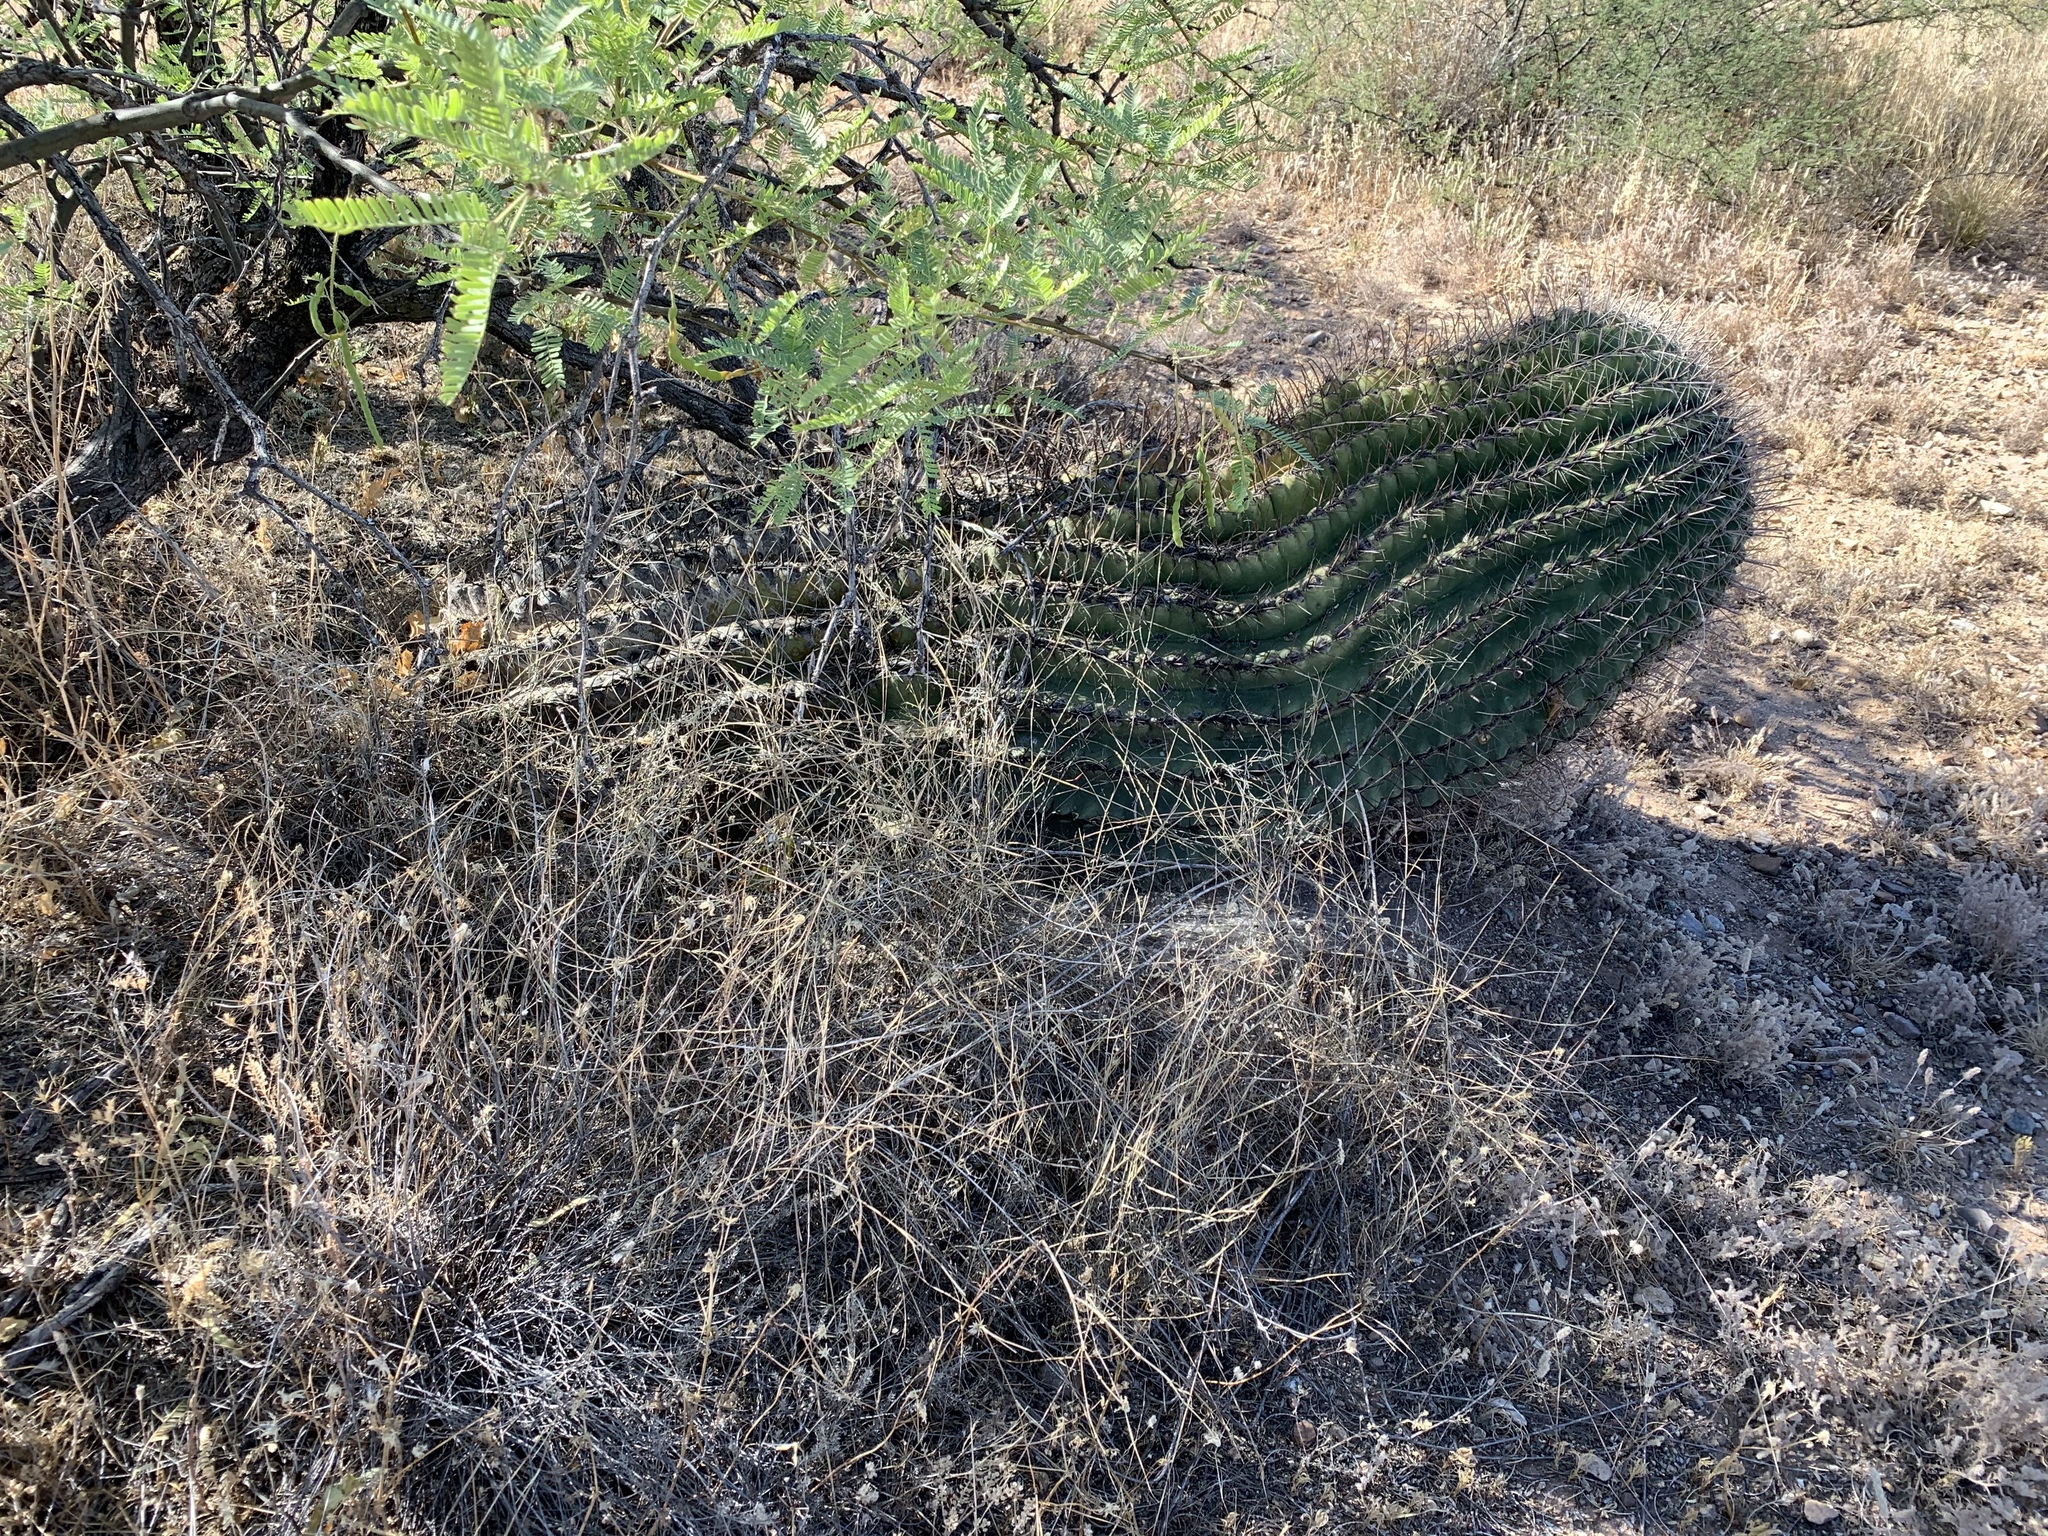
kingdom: Plantae
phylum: Tracheophyta
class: Magnoliopsida
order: Caryophyllales
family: Cactaceae
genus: Ferocactus
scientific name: Ferocactus wislizeni
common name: Candy barrel cactus
